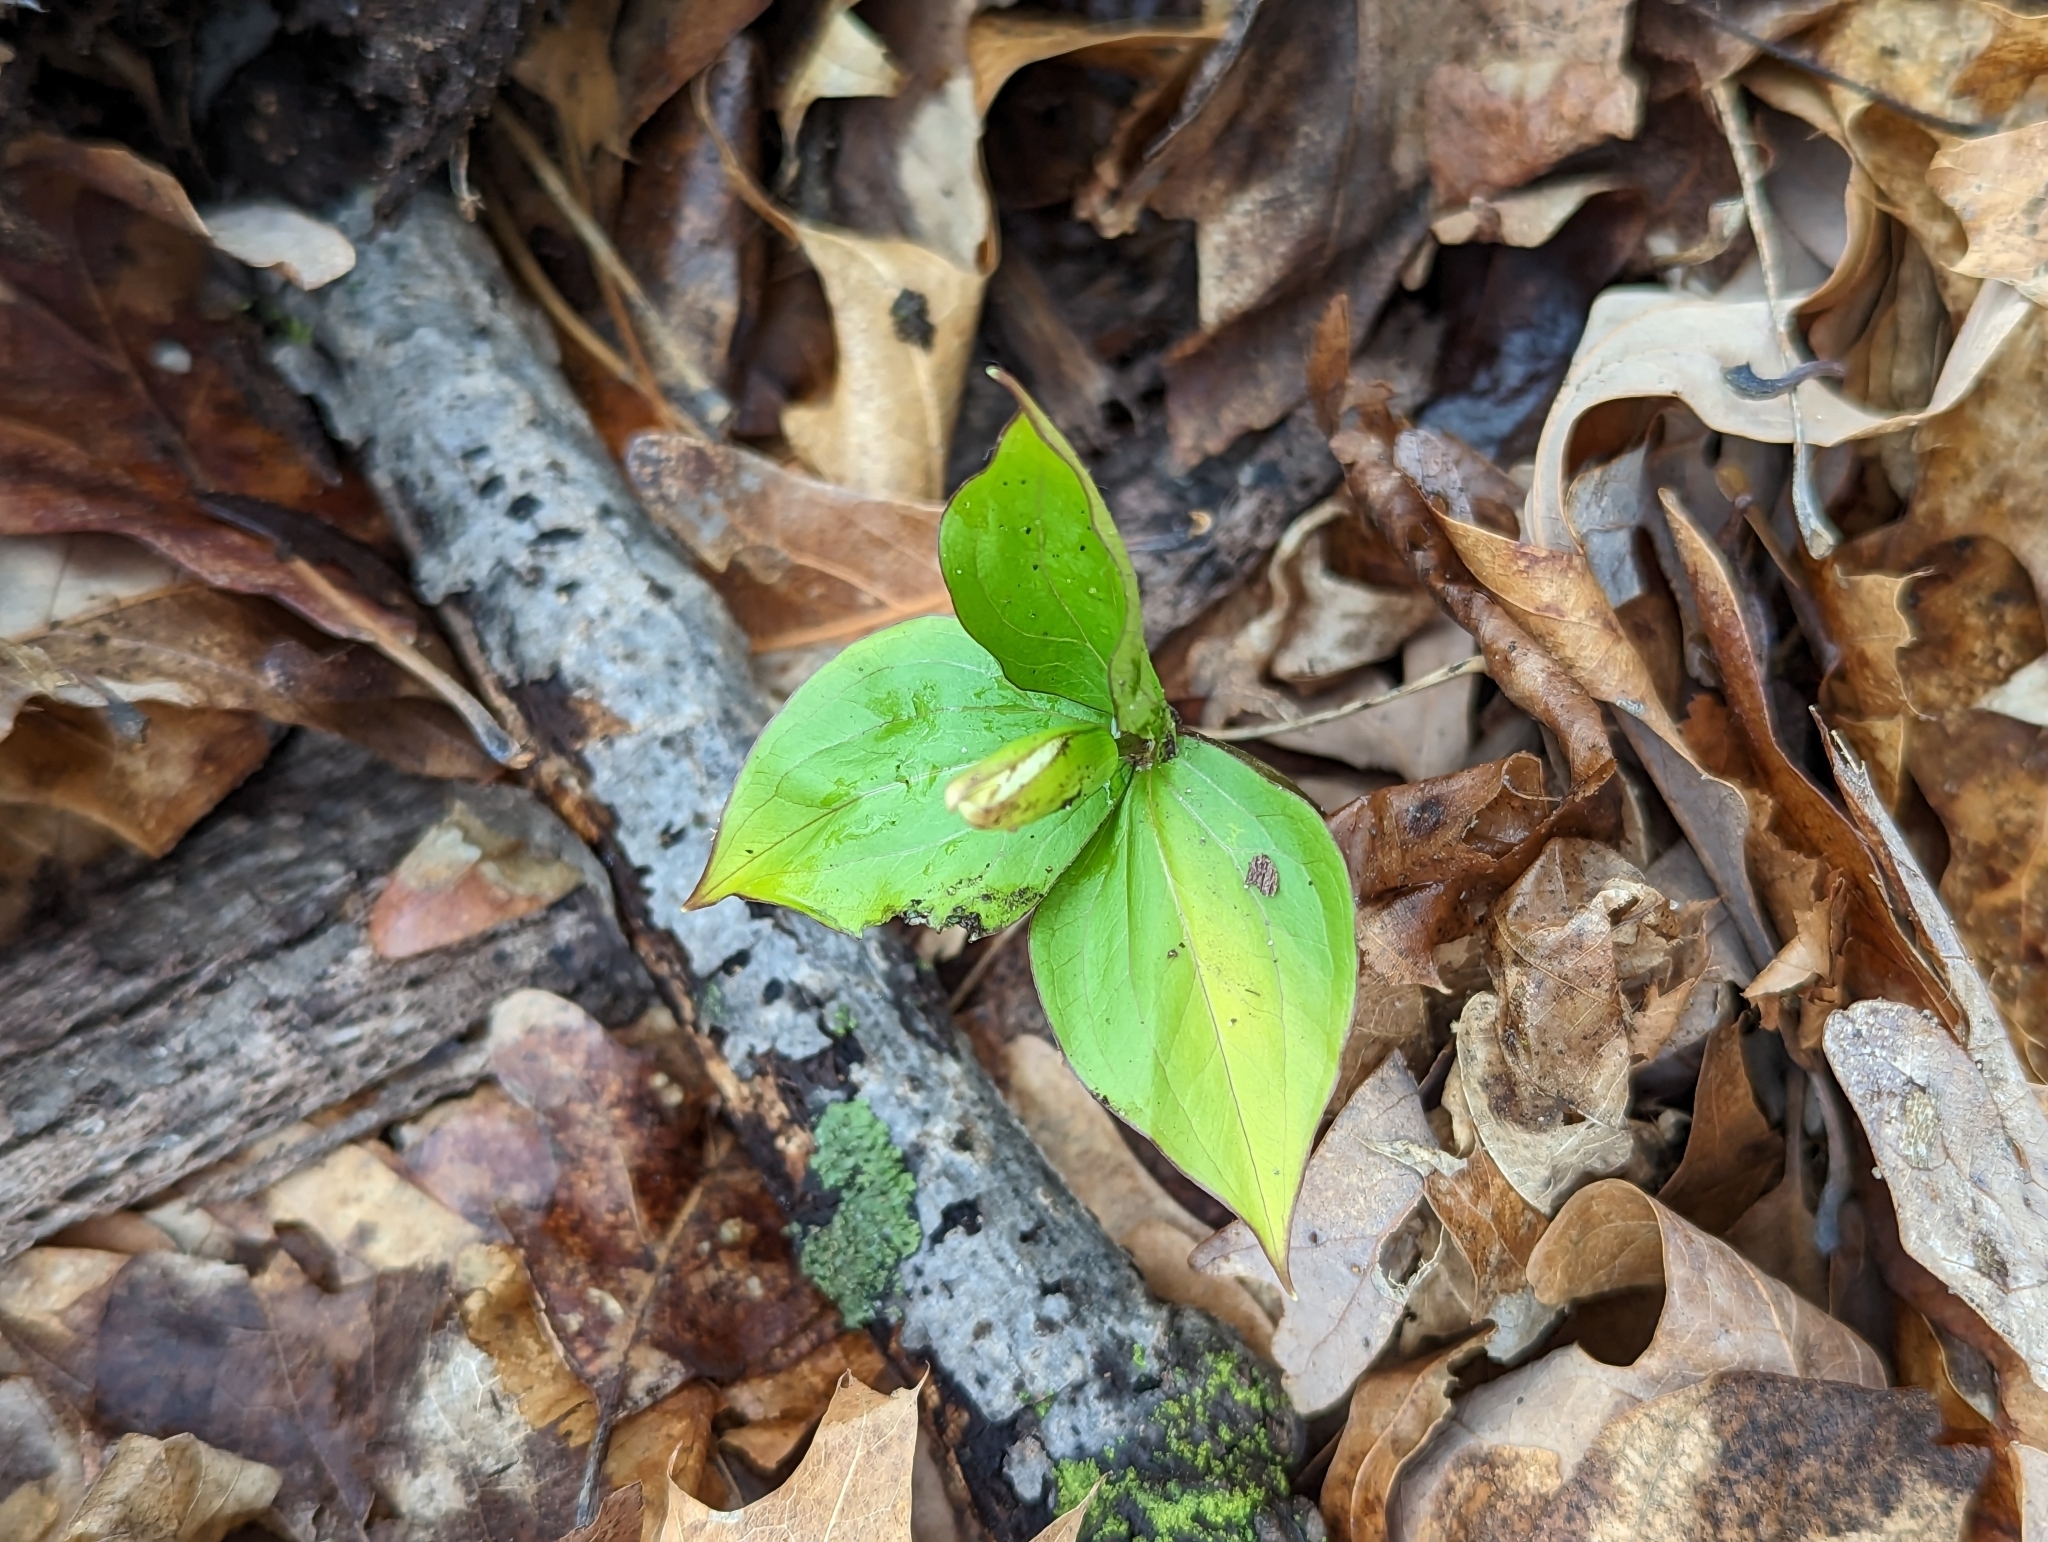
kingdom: Plantae
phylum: Tracheophyta
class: Liliopsida
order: Liliales
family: Melanthiaceae
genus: Trillium
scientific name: Trillium grandiflorum
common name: Great white trillium
